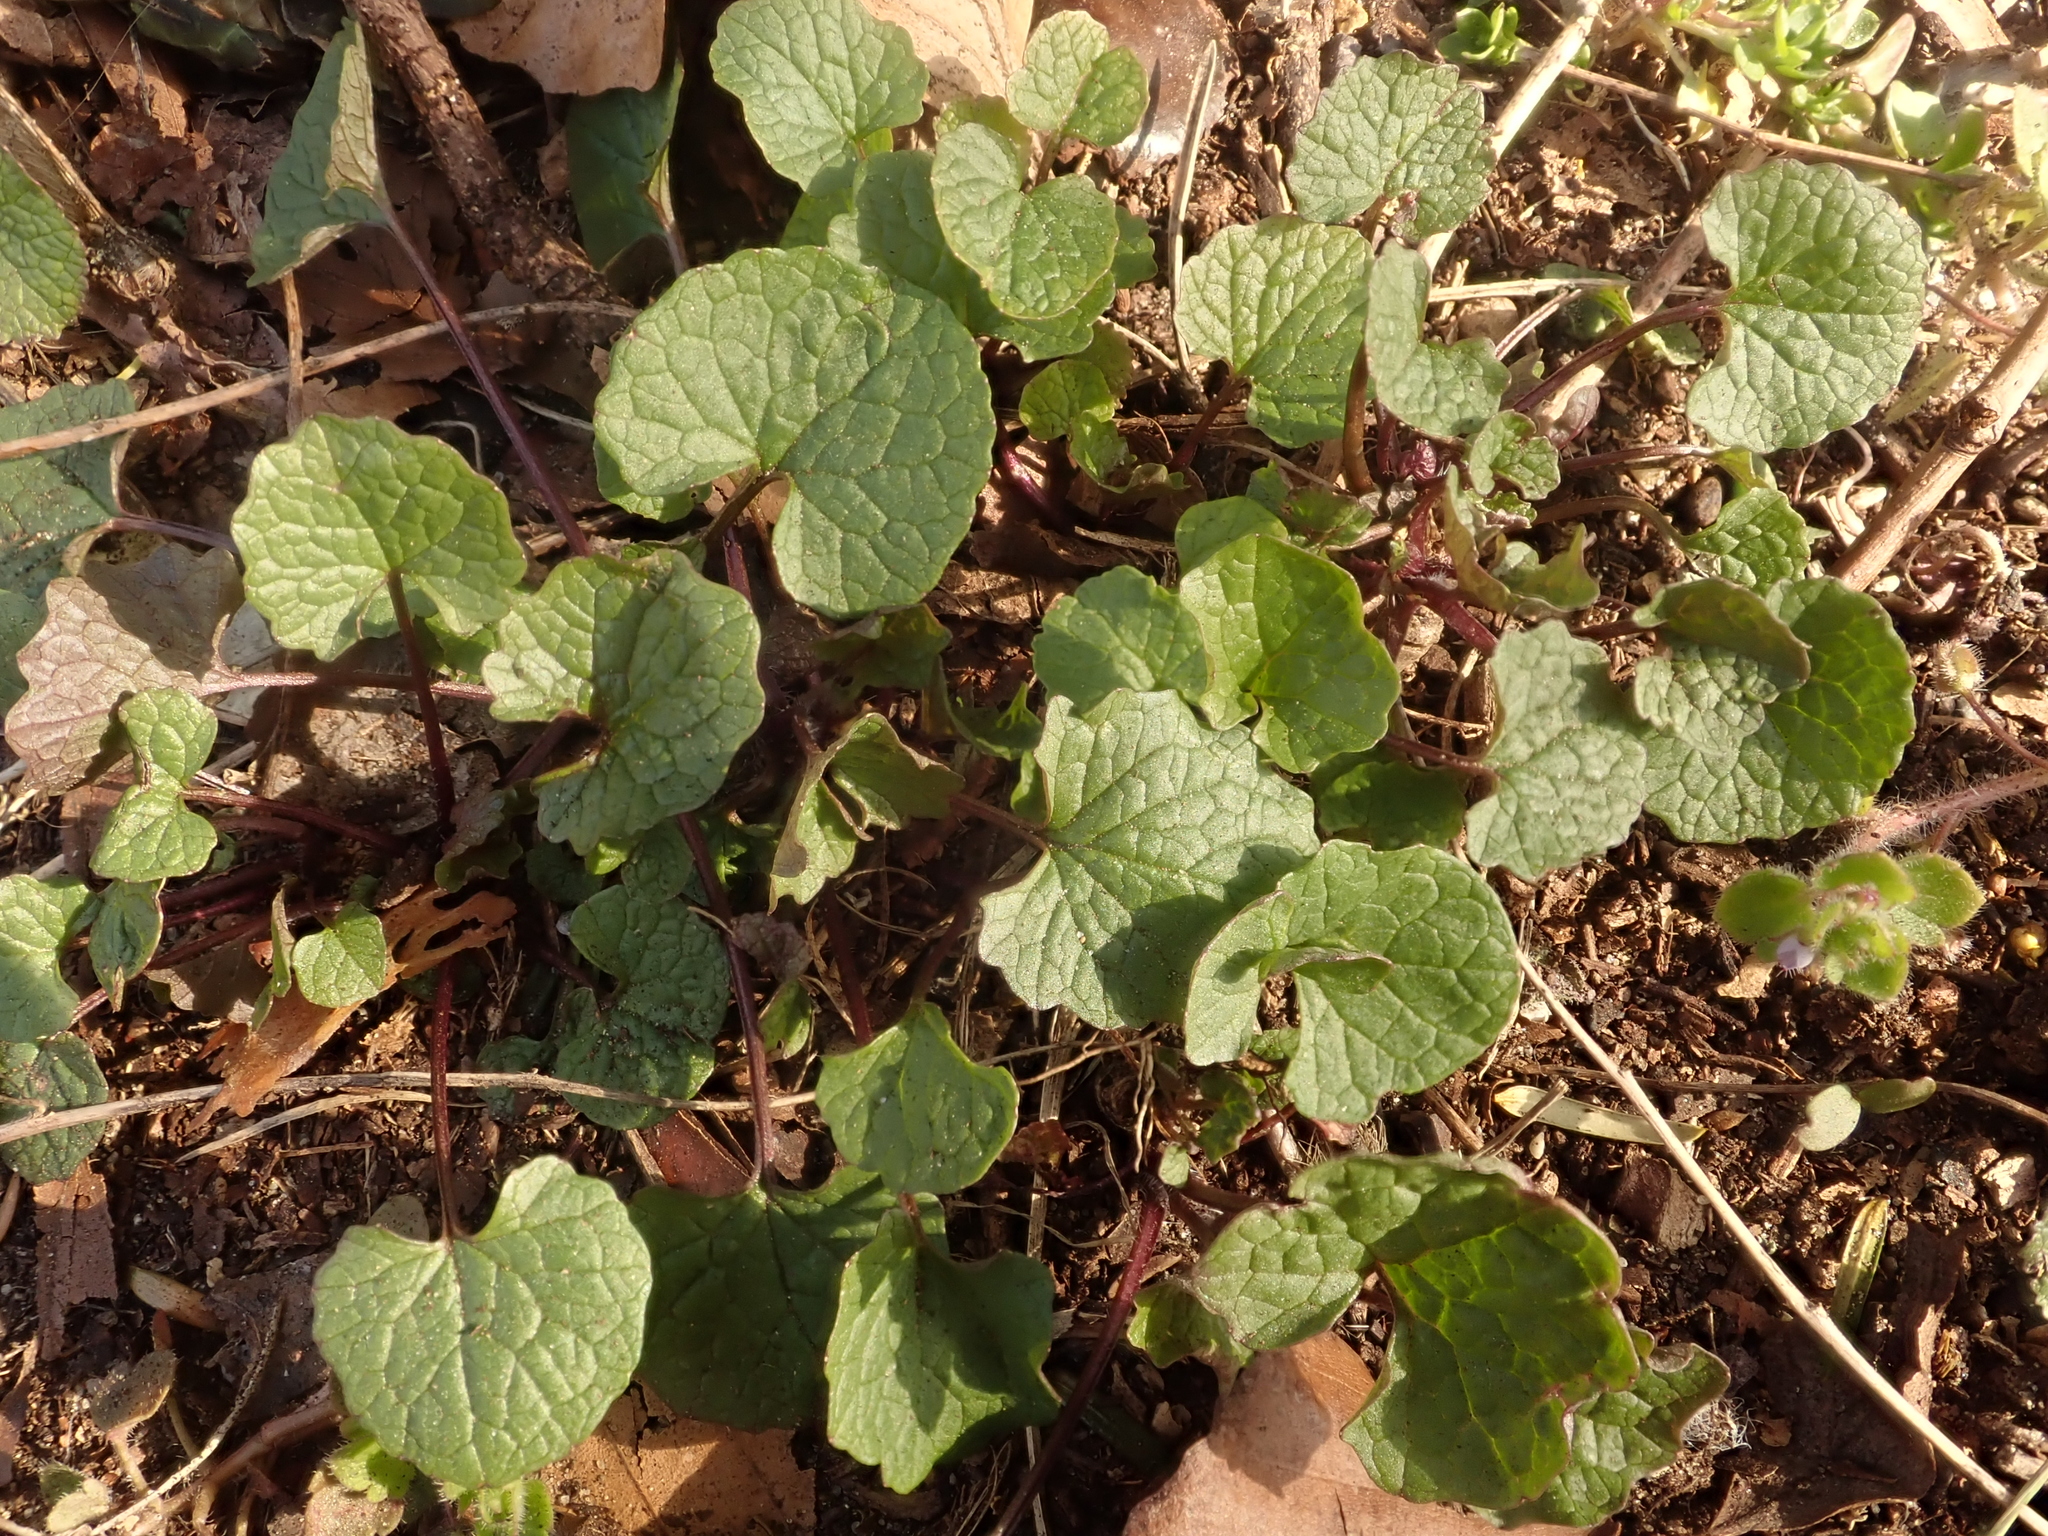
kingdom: Plantae
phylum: Tracheophyta
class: Magnoliopsida
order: Brassicales
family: Brassicaceae
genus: Alliaria
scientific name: Alliaria petiolata
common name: Garlic mustard
